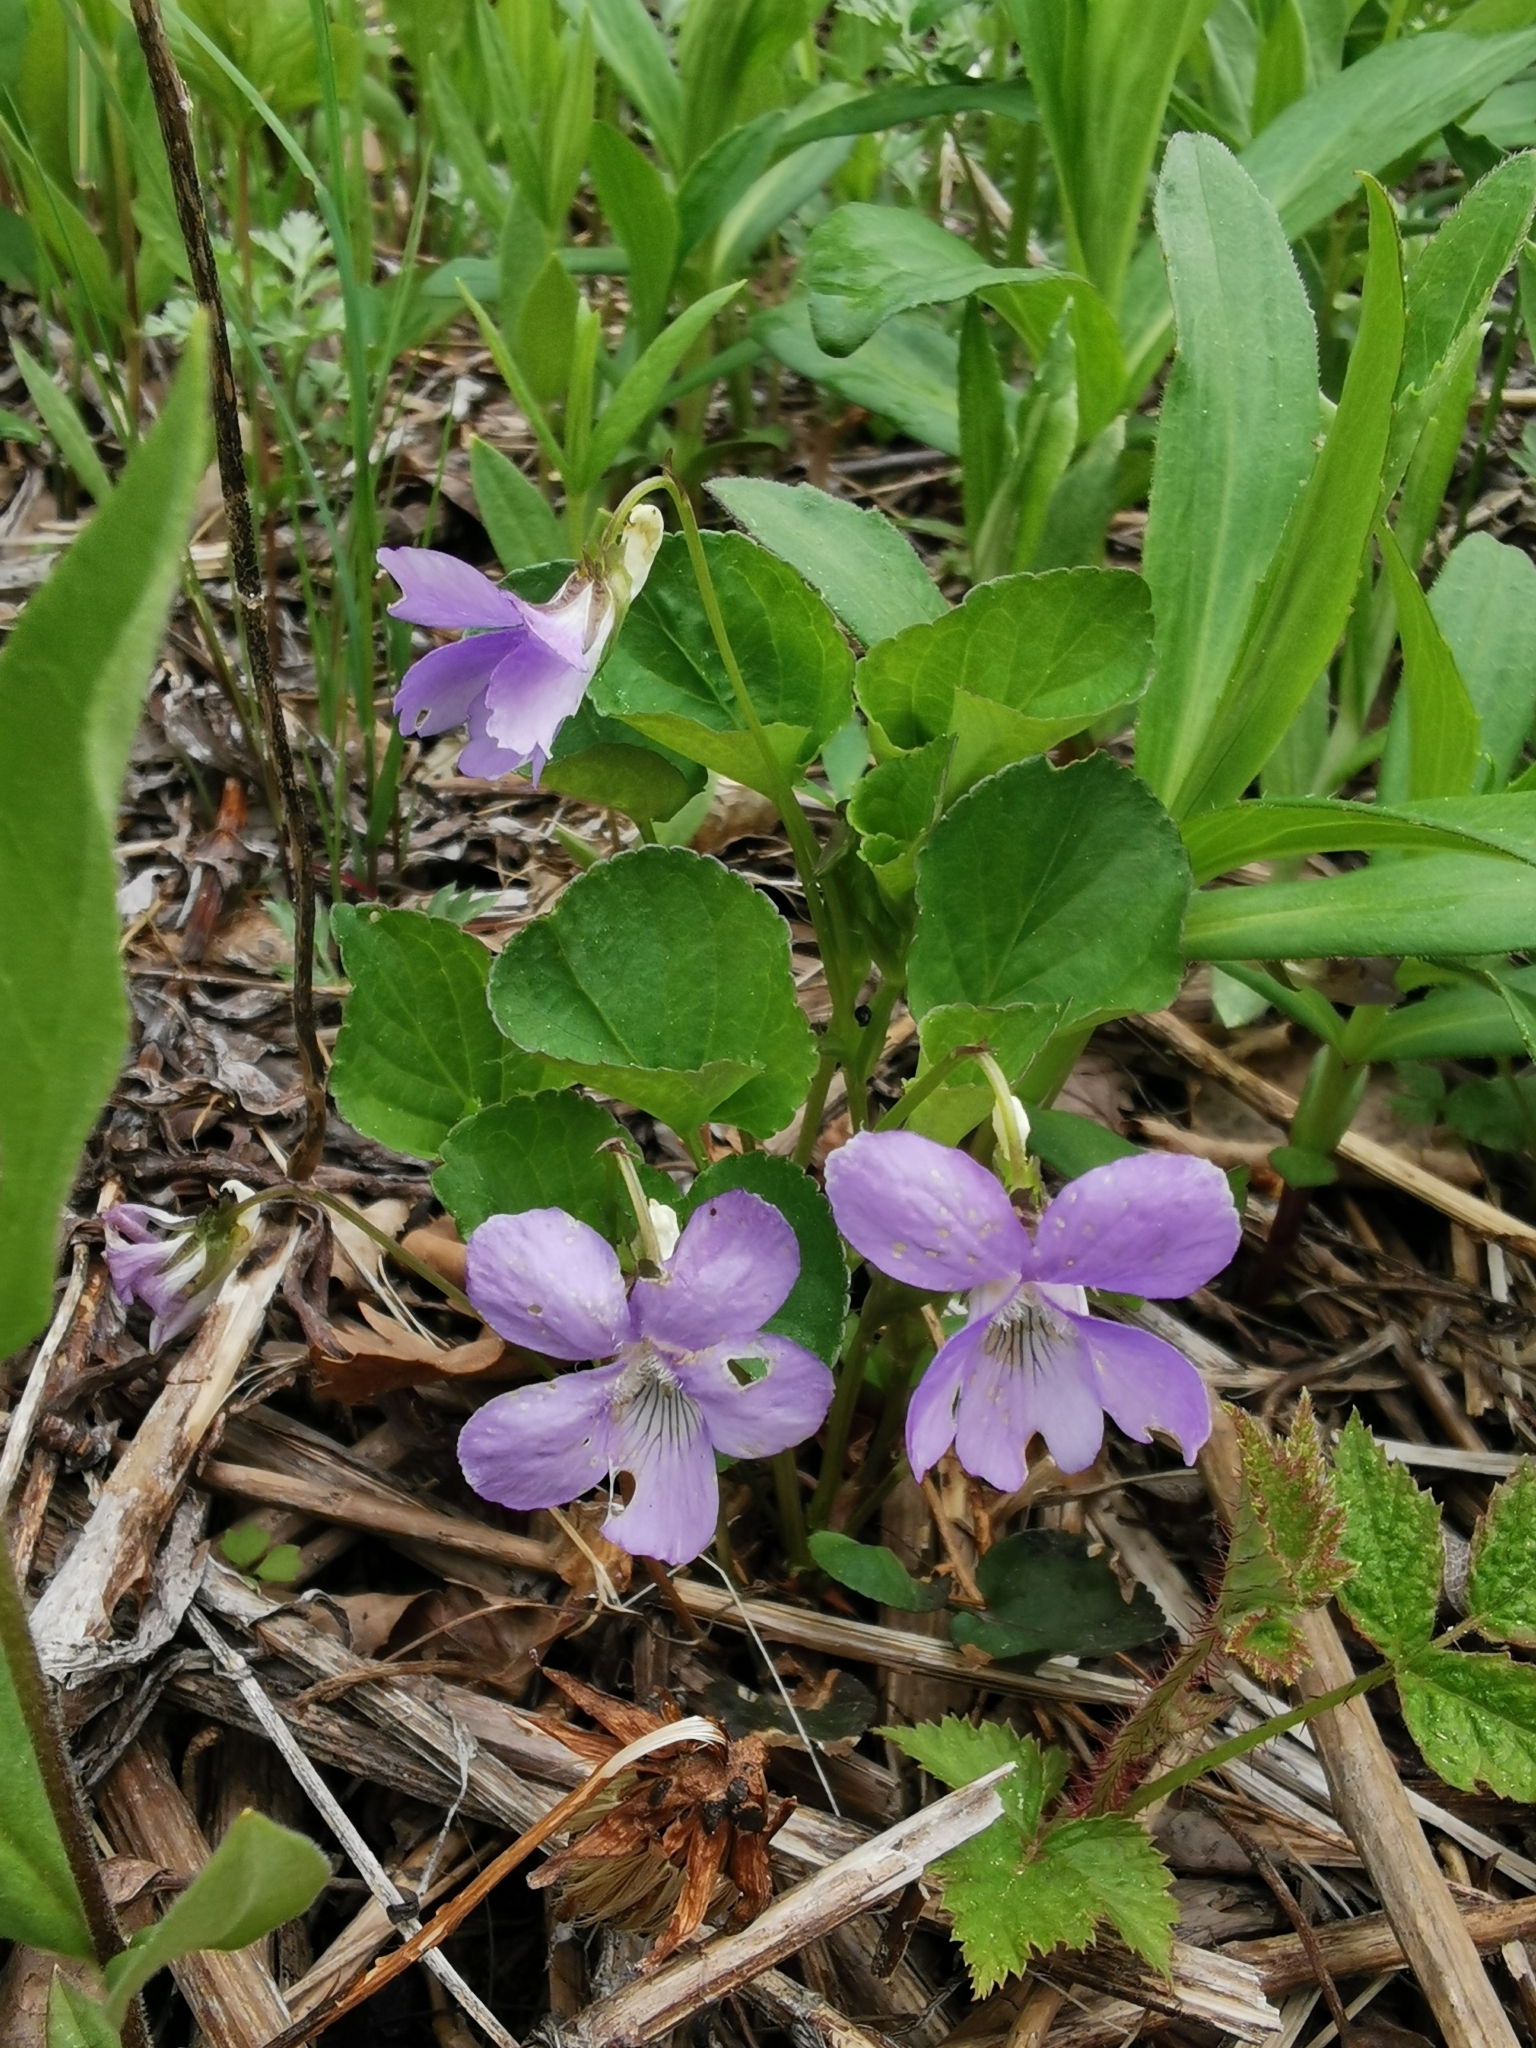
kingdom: Plantae
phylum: Tracheophyta
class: Magnoliopsida
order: Malpighiales
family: Violaceae
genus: Viola
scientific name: Viola sacchalinensis
